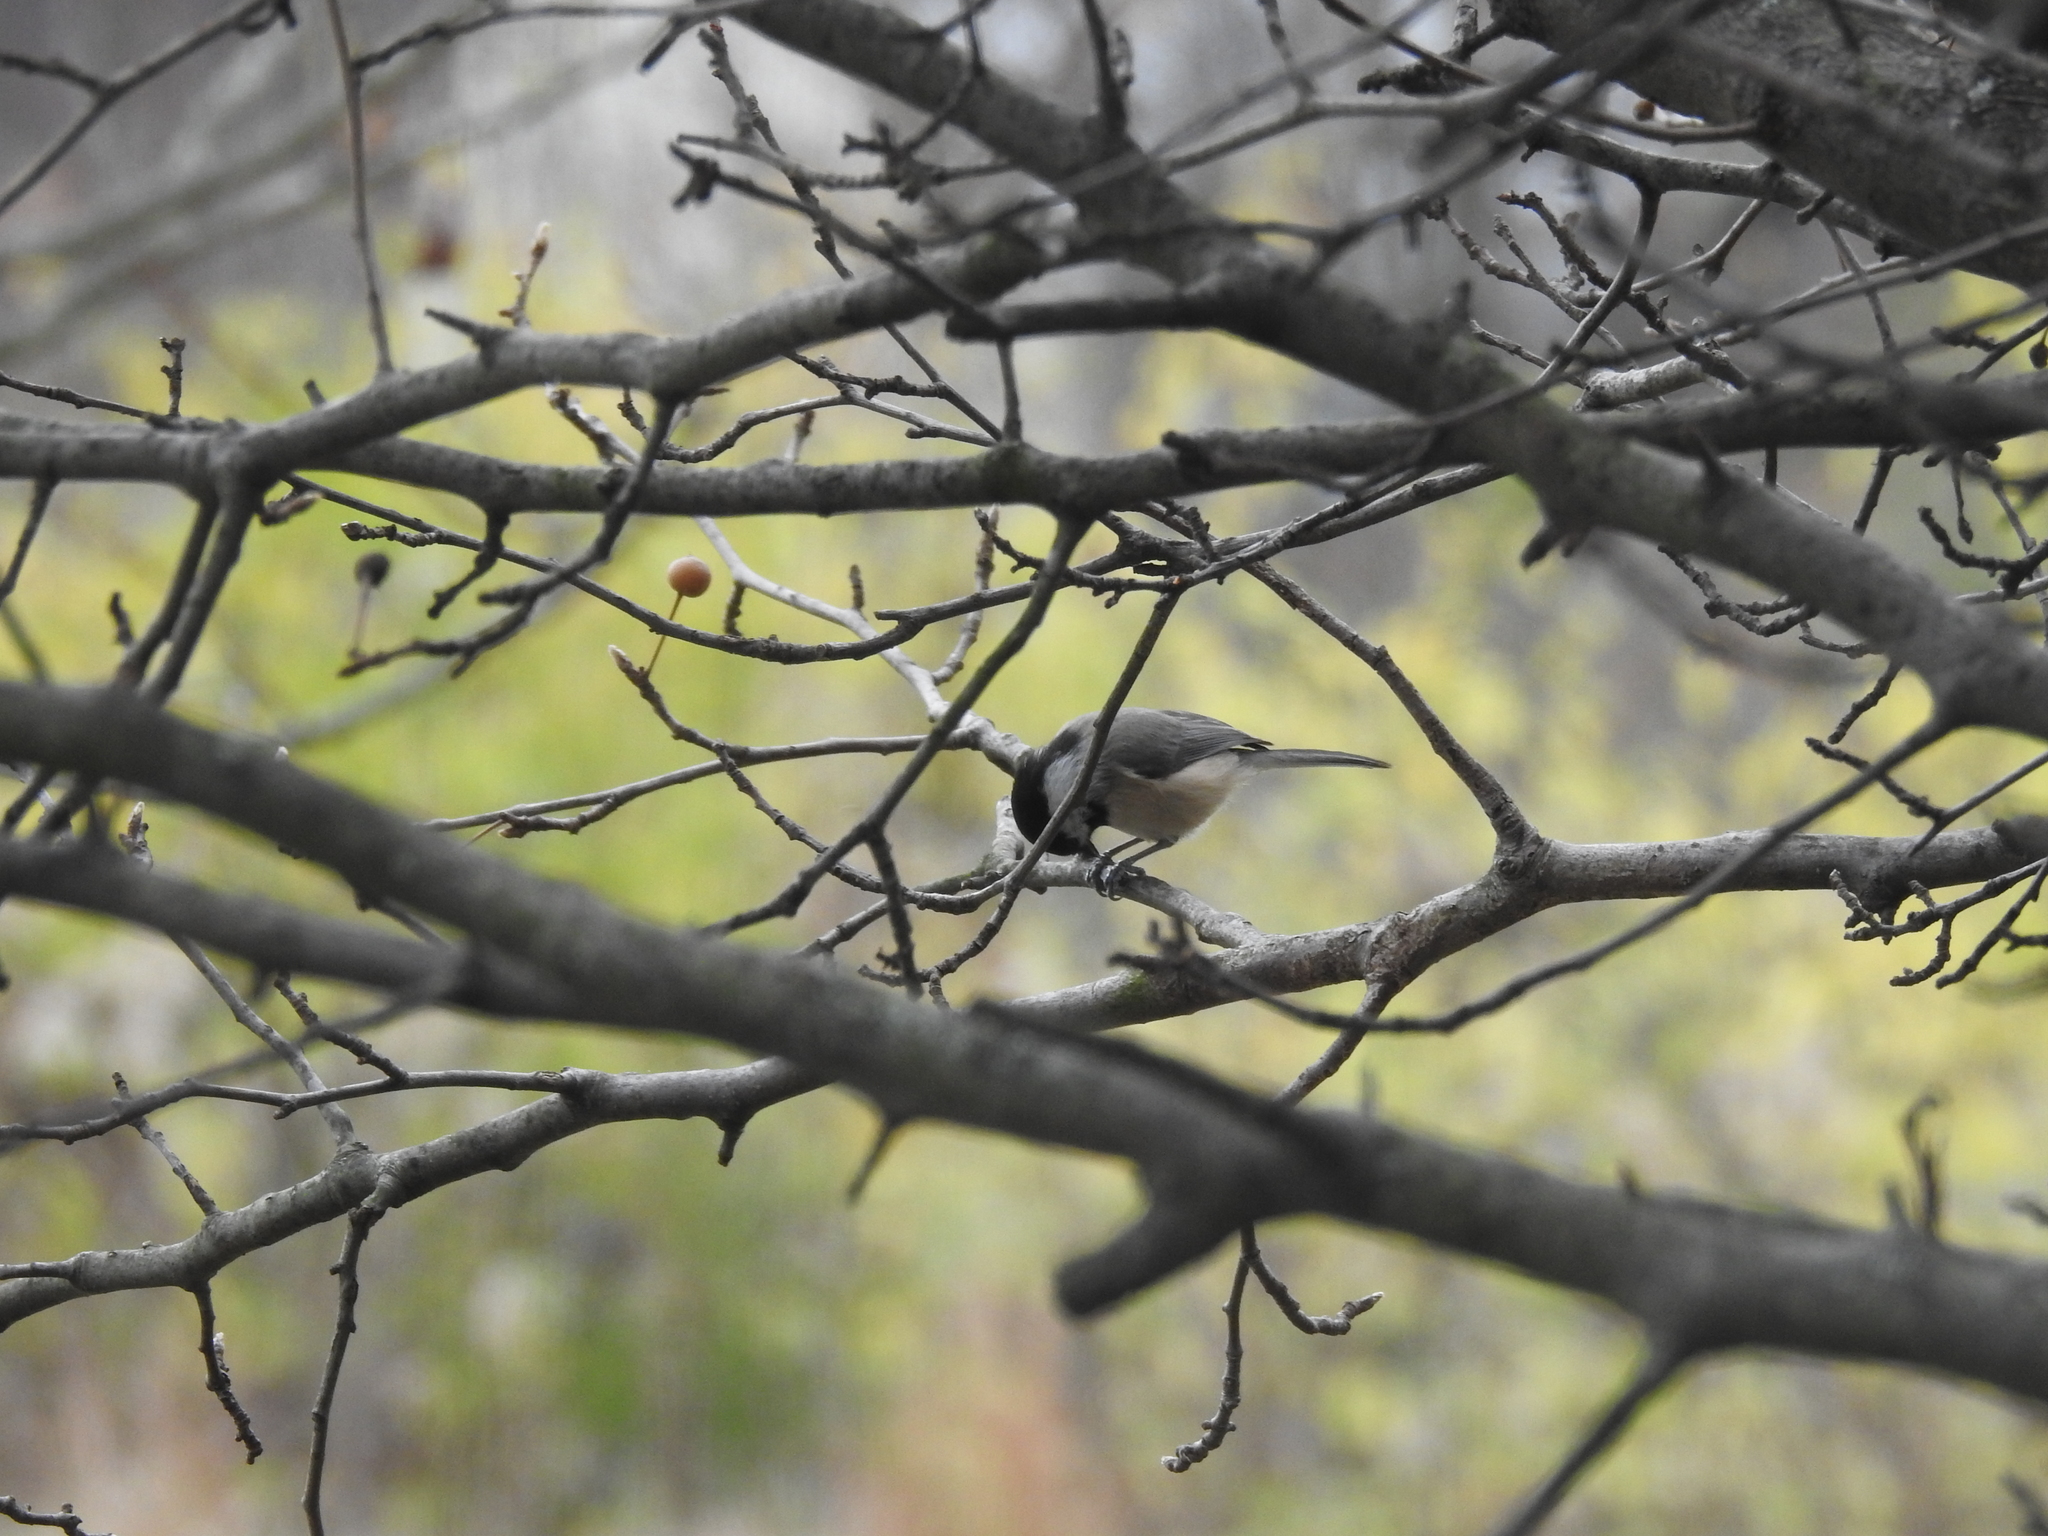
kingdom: Animalia
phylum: Chordata
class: Aves
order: Passeriformes
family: Paridae
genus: Poecile
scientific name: Poecile carolinensis
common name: Carolina chickadee
